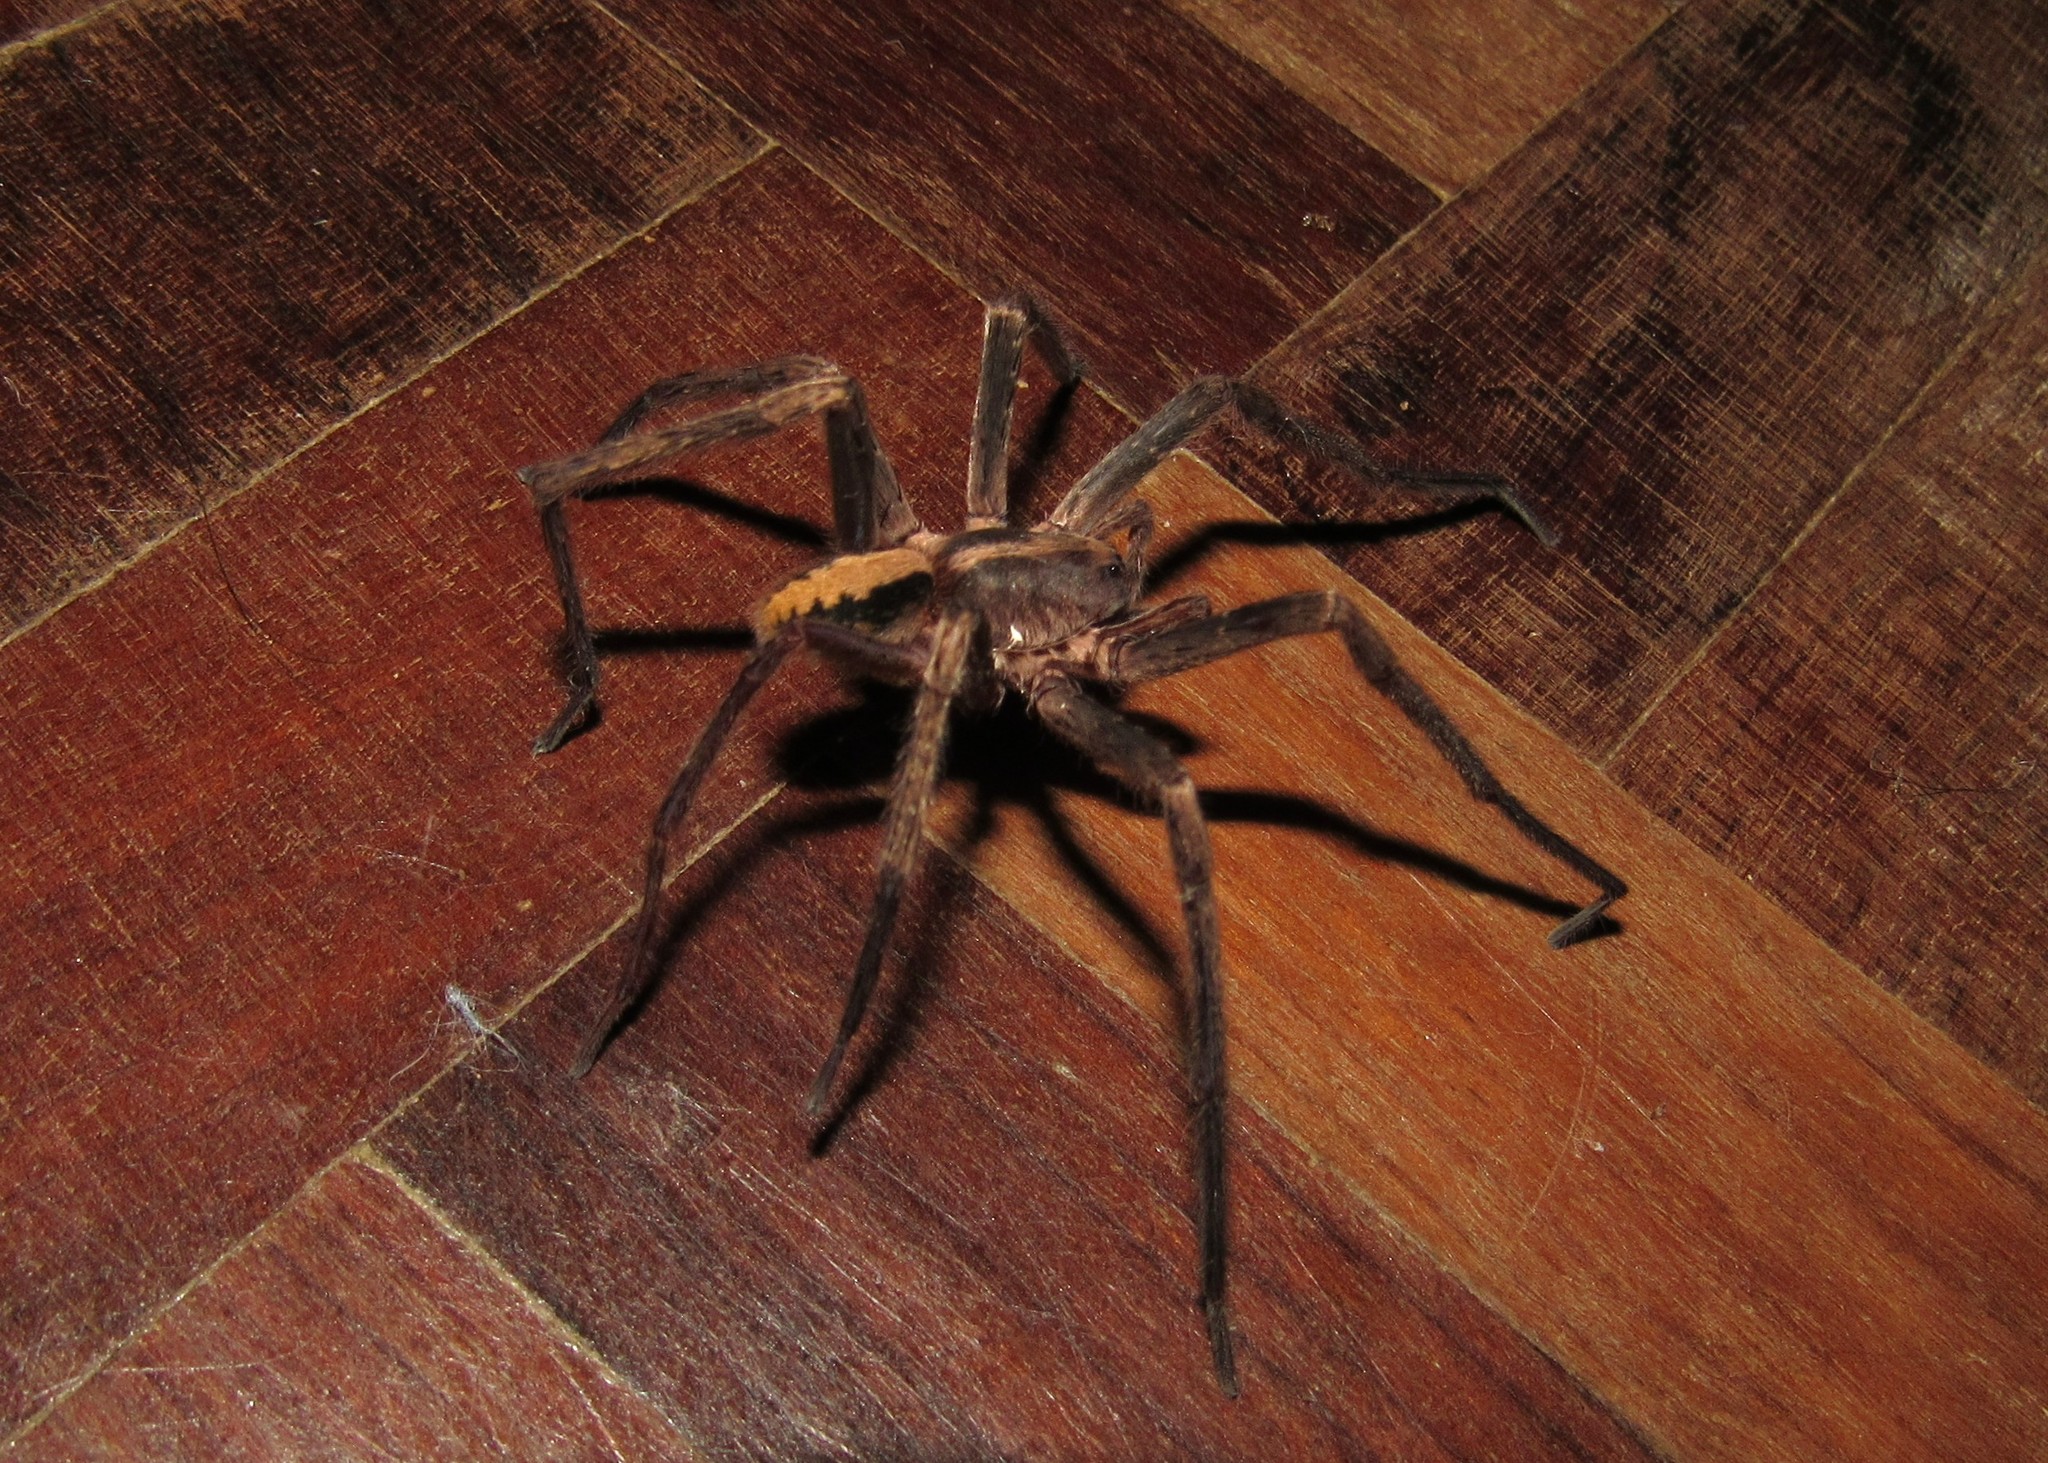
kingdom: Animalia
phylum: Arthropoda
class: Arachnida
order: Araneae
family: Ctenidae
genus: Guasuctenus
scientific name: Guasuctenus vittatissimus
